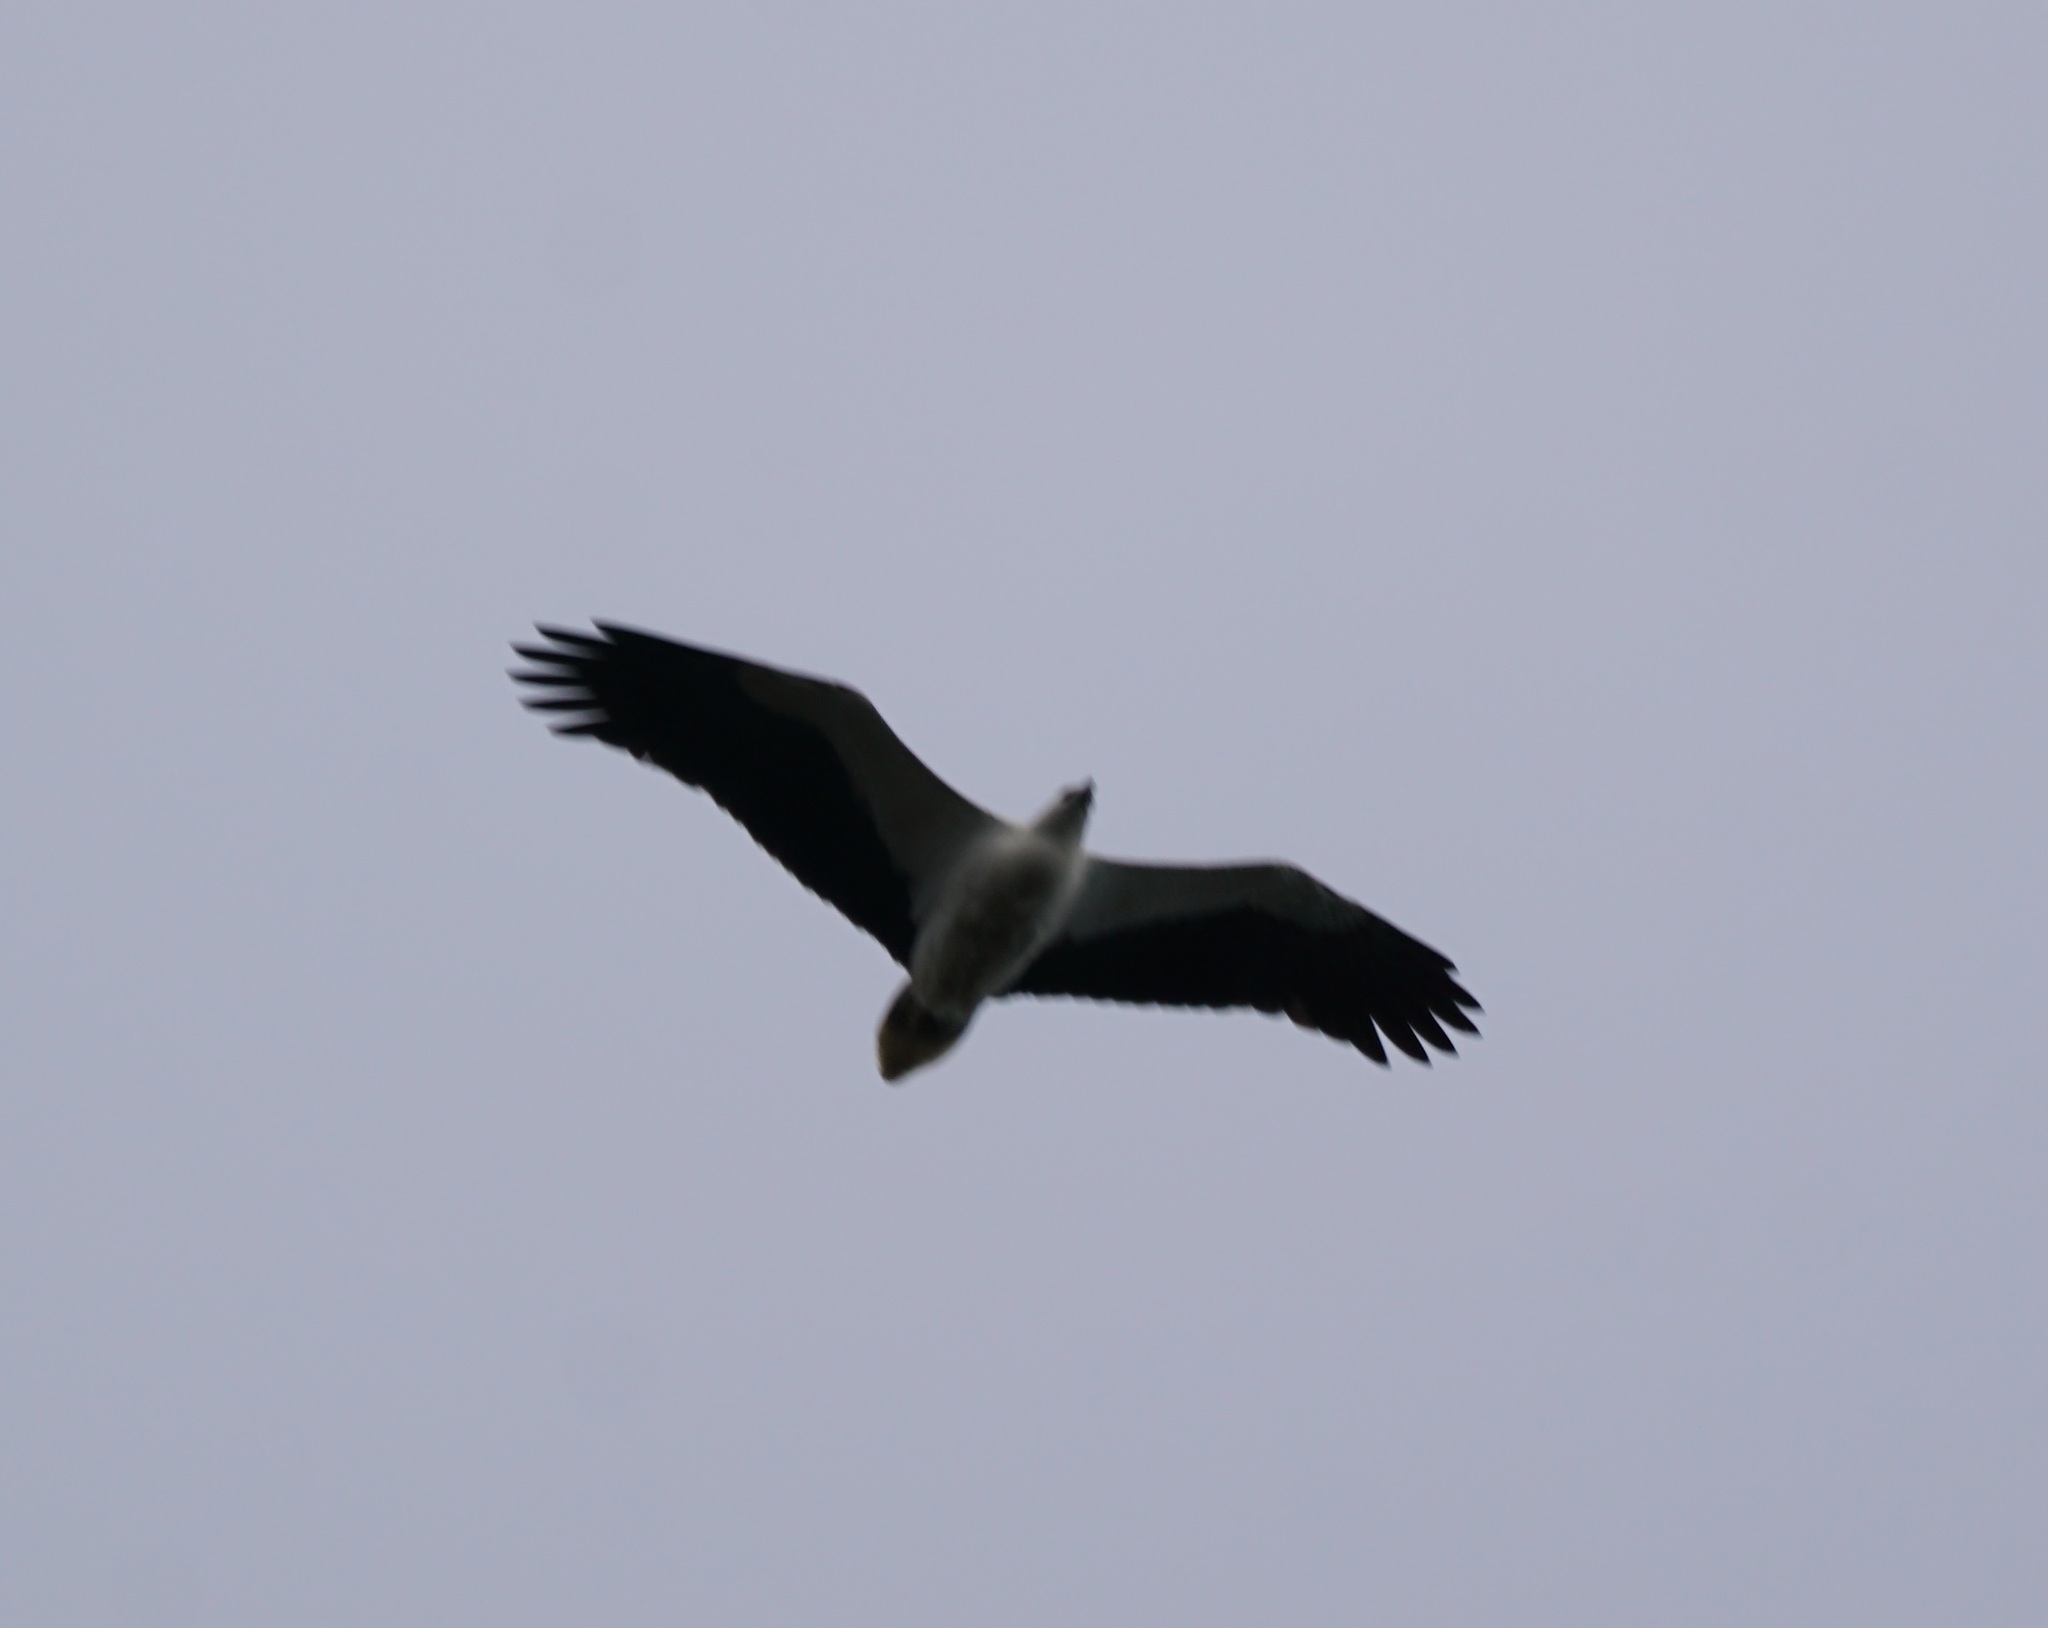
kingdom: Animalia
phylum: Chordata
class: Aves
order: Accipitriformes
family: Accipitridae
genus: Haliaeetus
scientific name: Haliaeetus leucogaster
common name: White-bellied sea eagle
